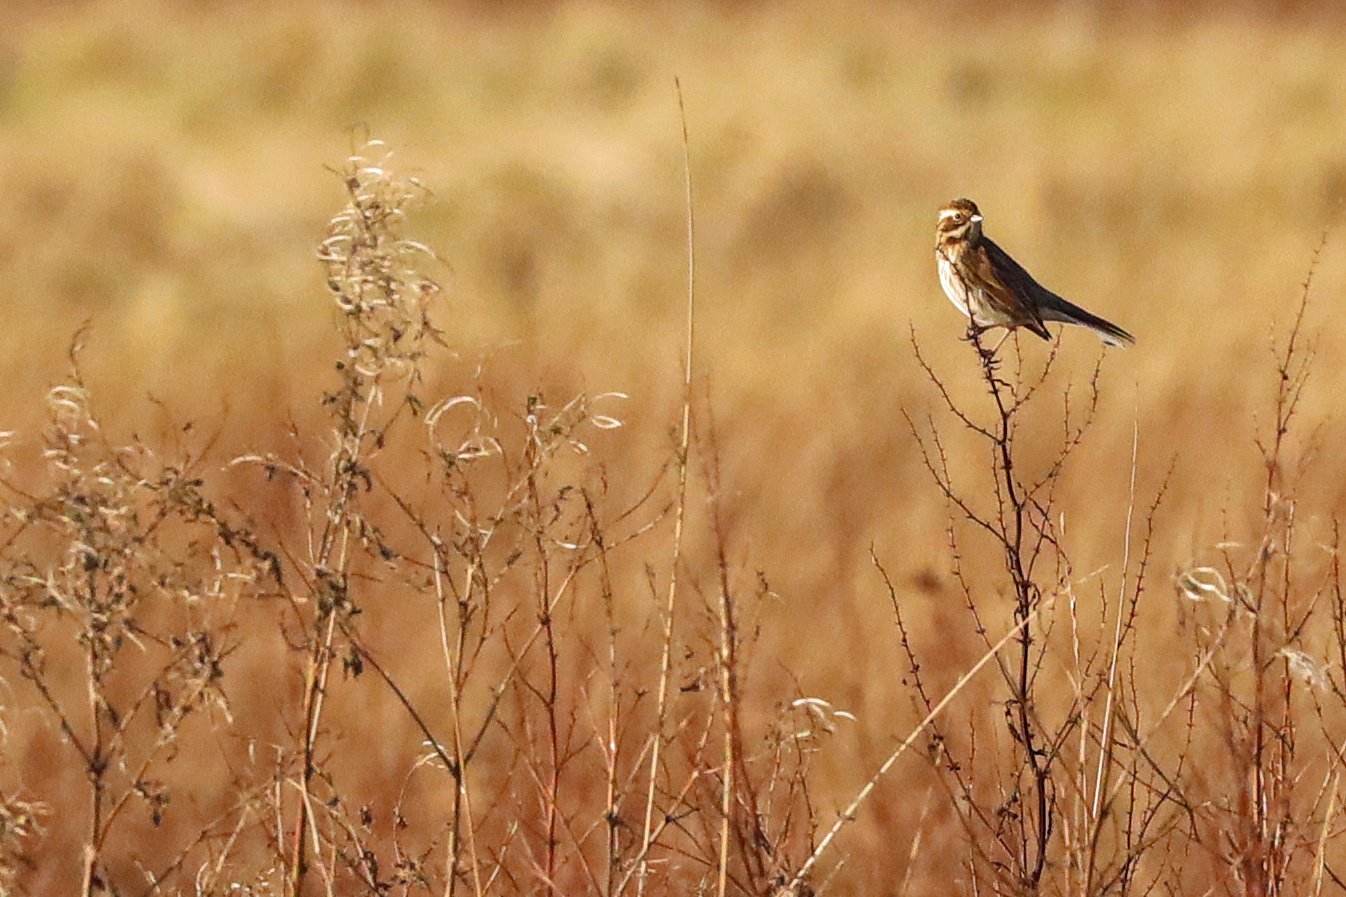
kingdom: Animalia
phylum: Chordata
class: Aves
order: Passeriformes
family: Emberizidae
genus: Emberiza
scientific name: Emberiza schoeniclus
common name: Reed bunting
